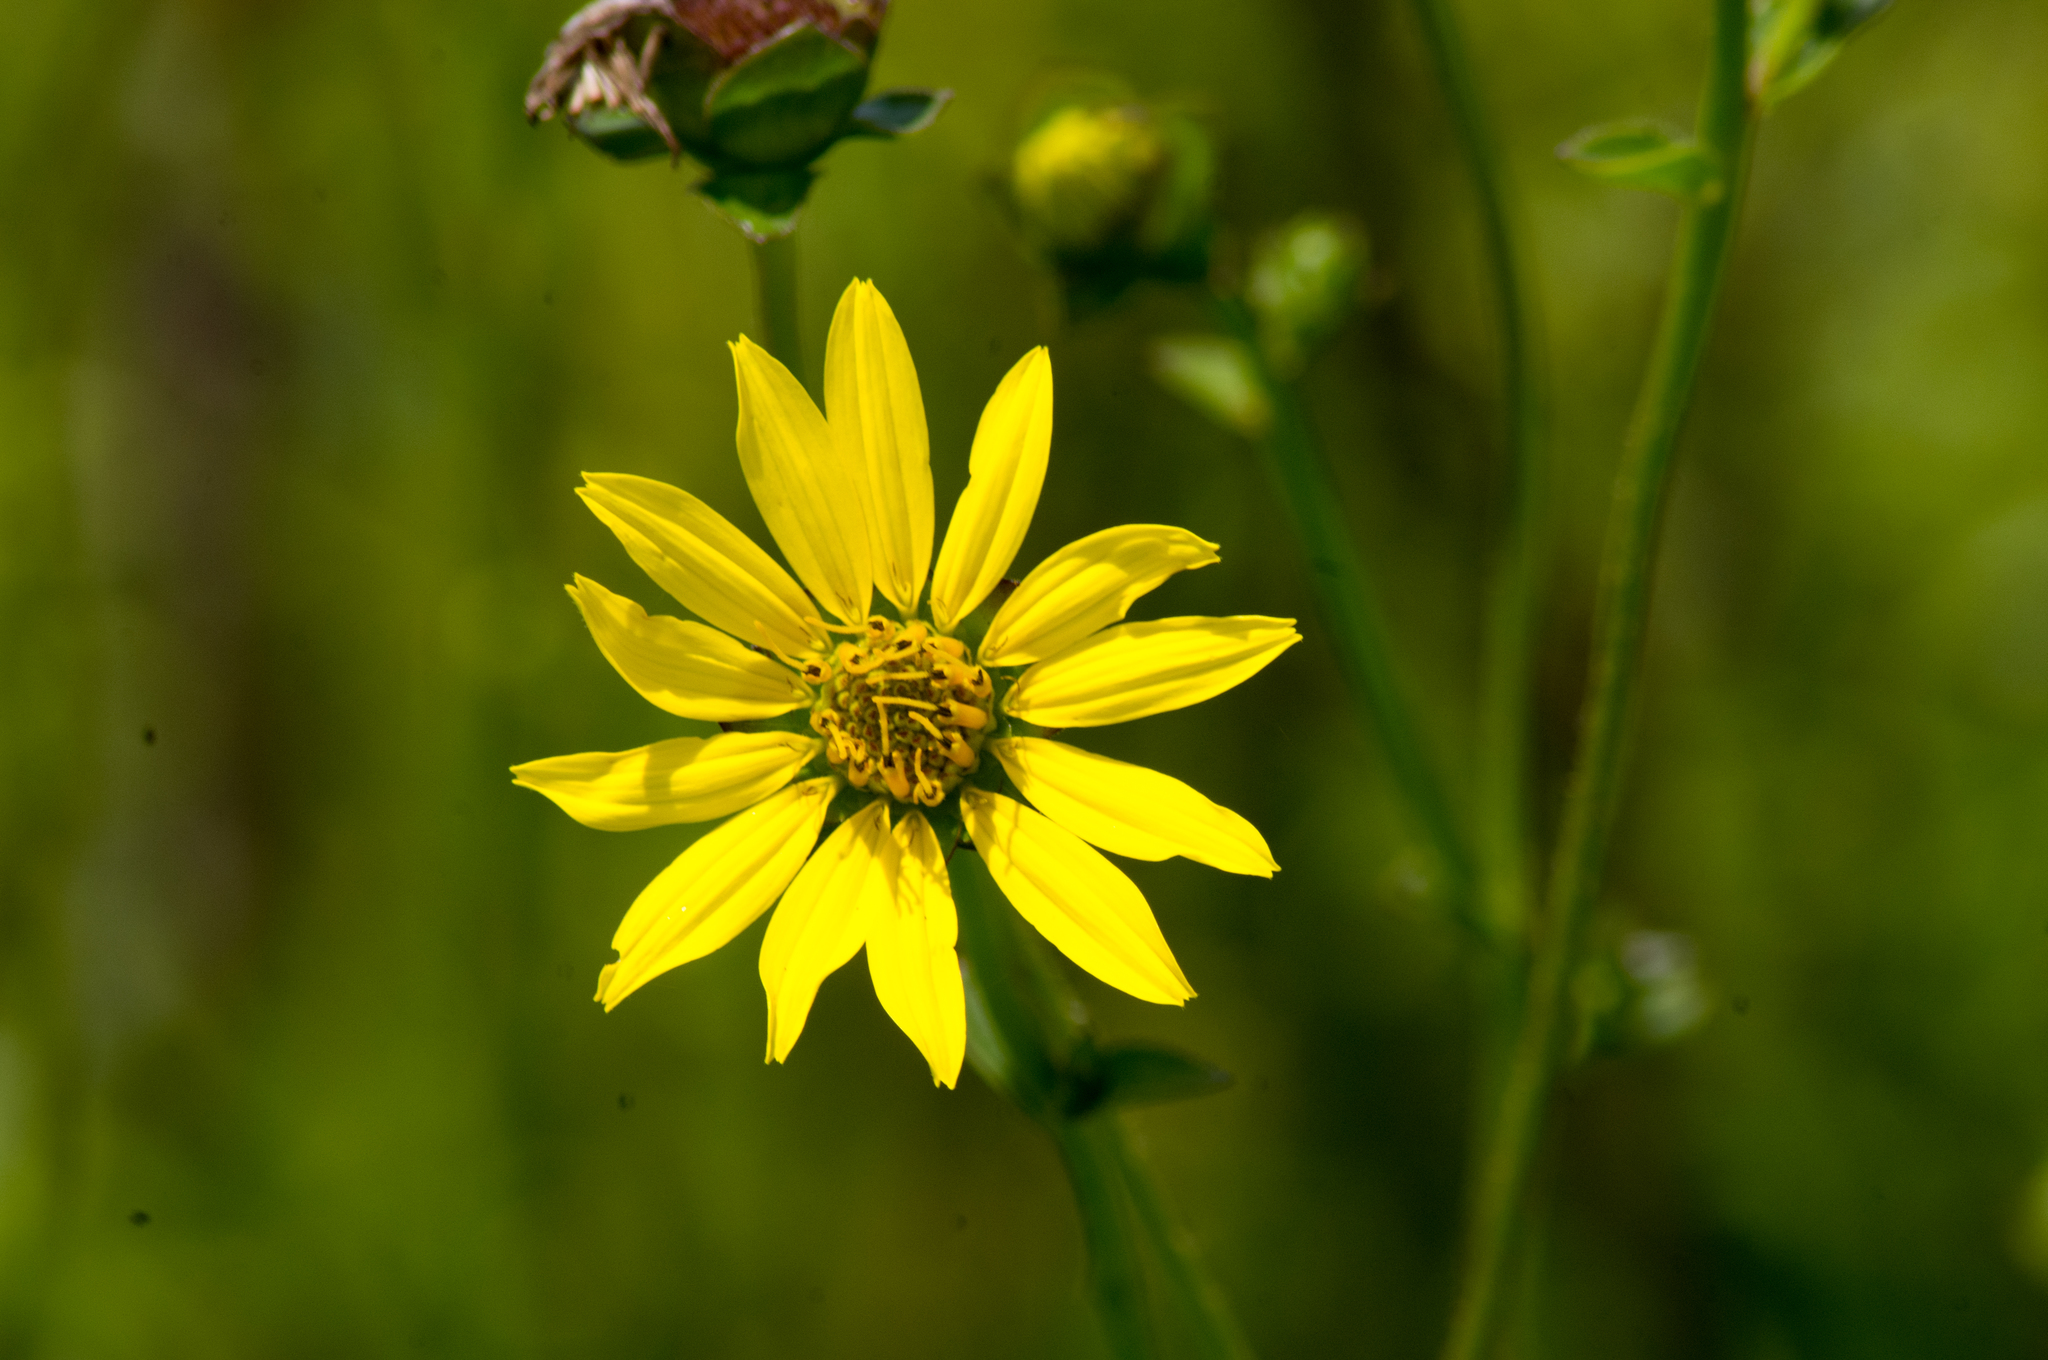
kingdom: Plantae
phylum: Tracheophyta
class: Magnoliopsida
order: Asterales
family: Asteraceae
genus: Silphium
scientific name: Silphium radula
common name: Roughleaf rosinweed
